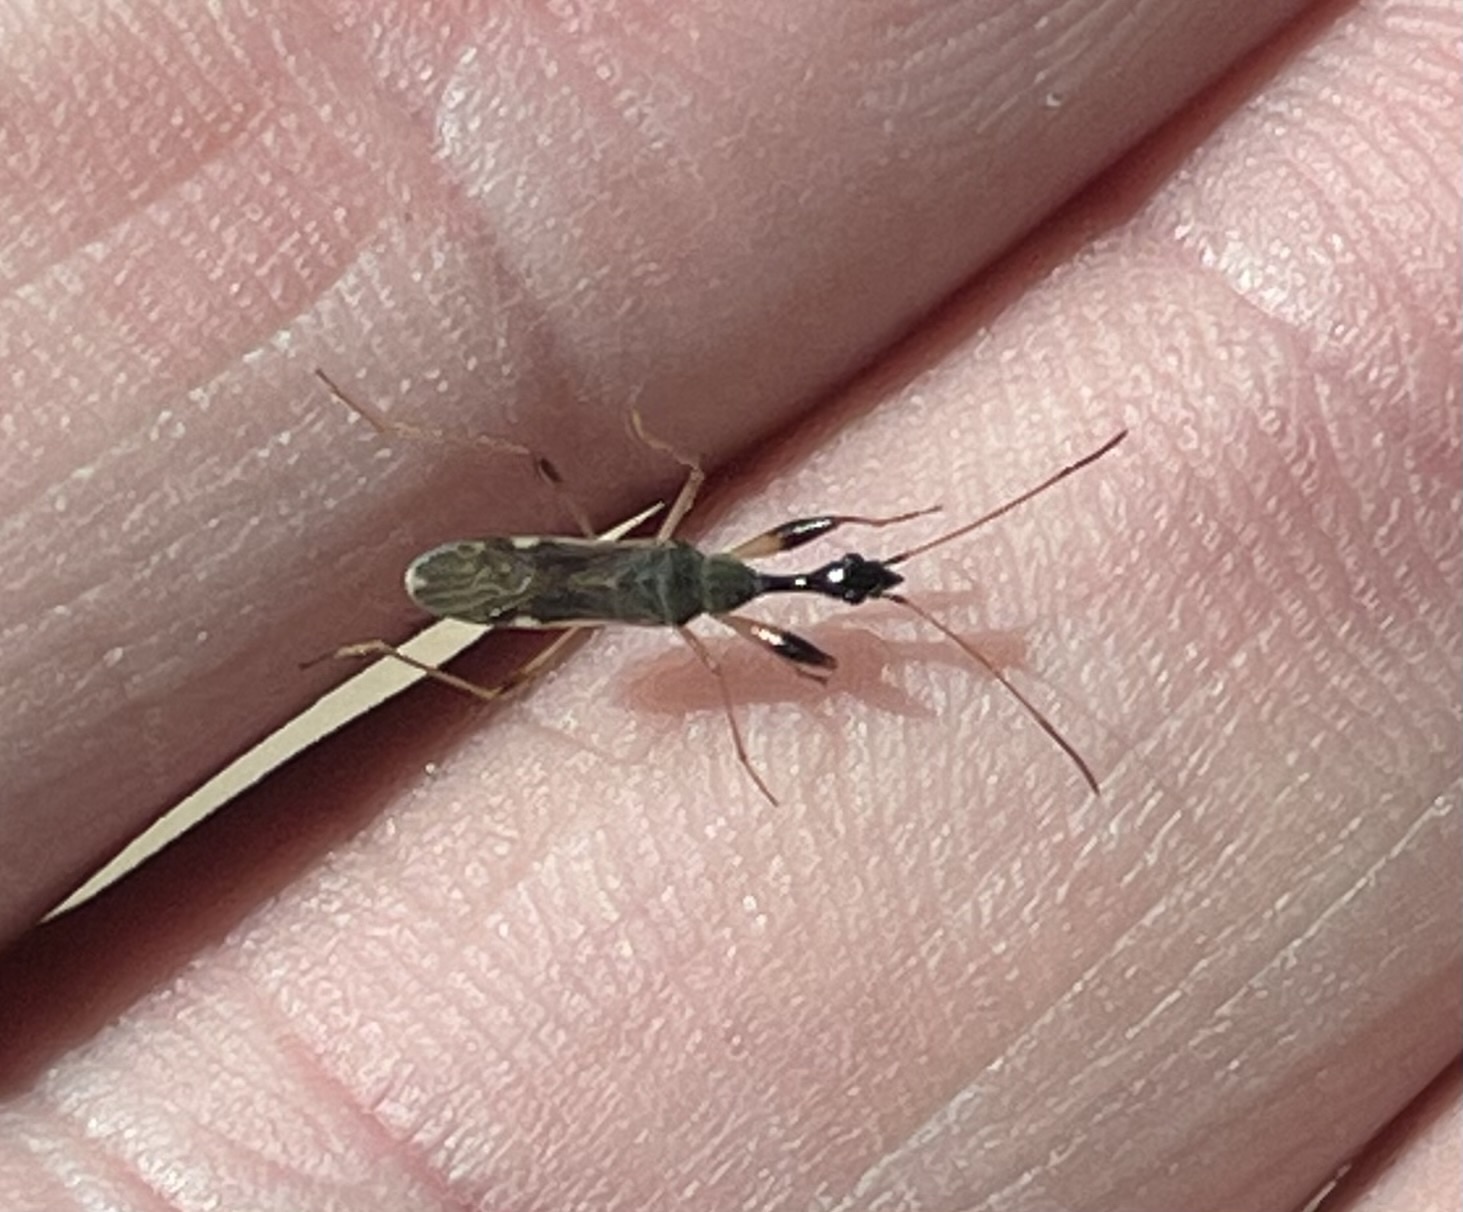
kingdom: Animalia
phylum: Arthropoda
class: Insecta
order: Hemiptera
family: Rhyparochromidae
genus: Myodocha
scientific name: Myodocha serripes
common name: Long-necked seed bug
